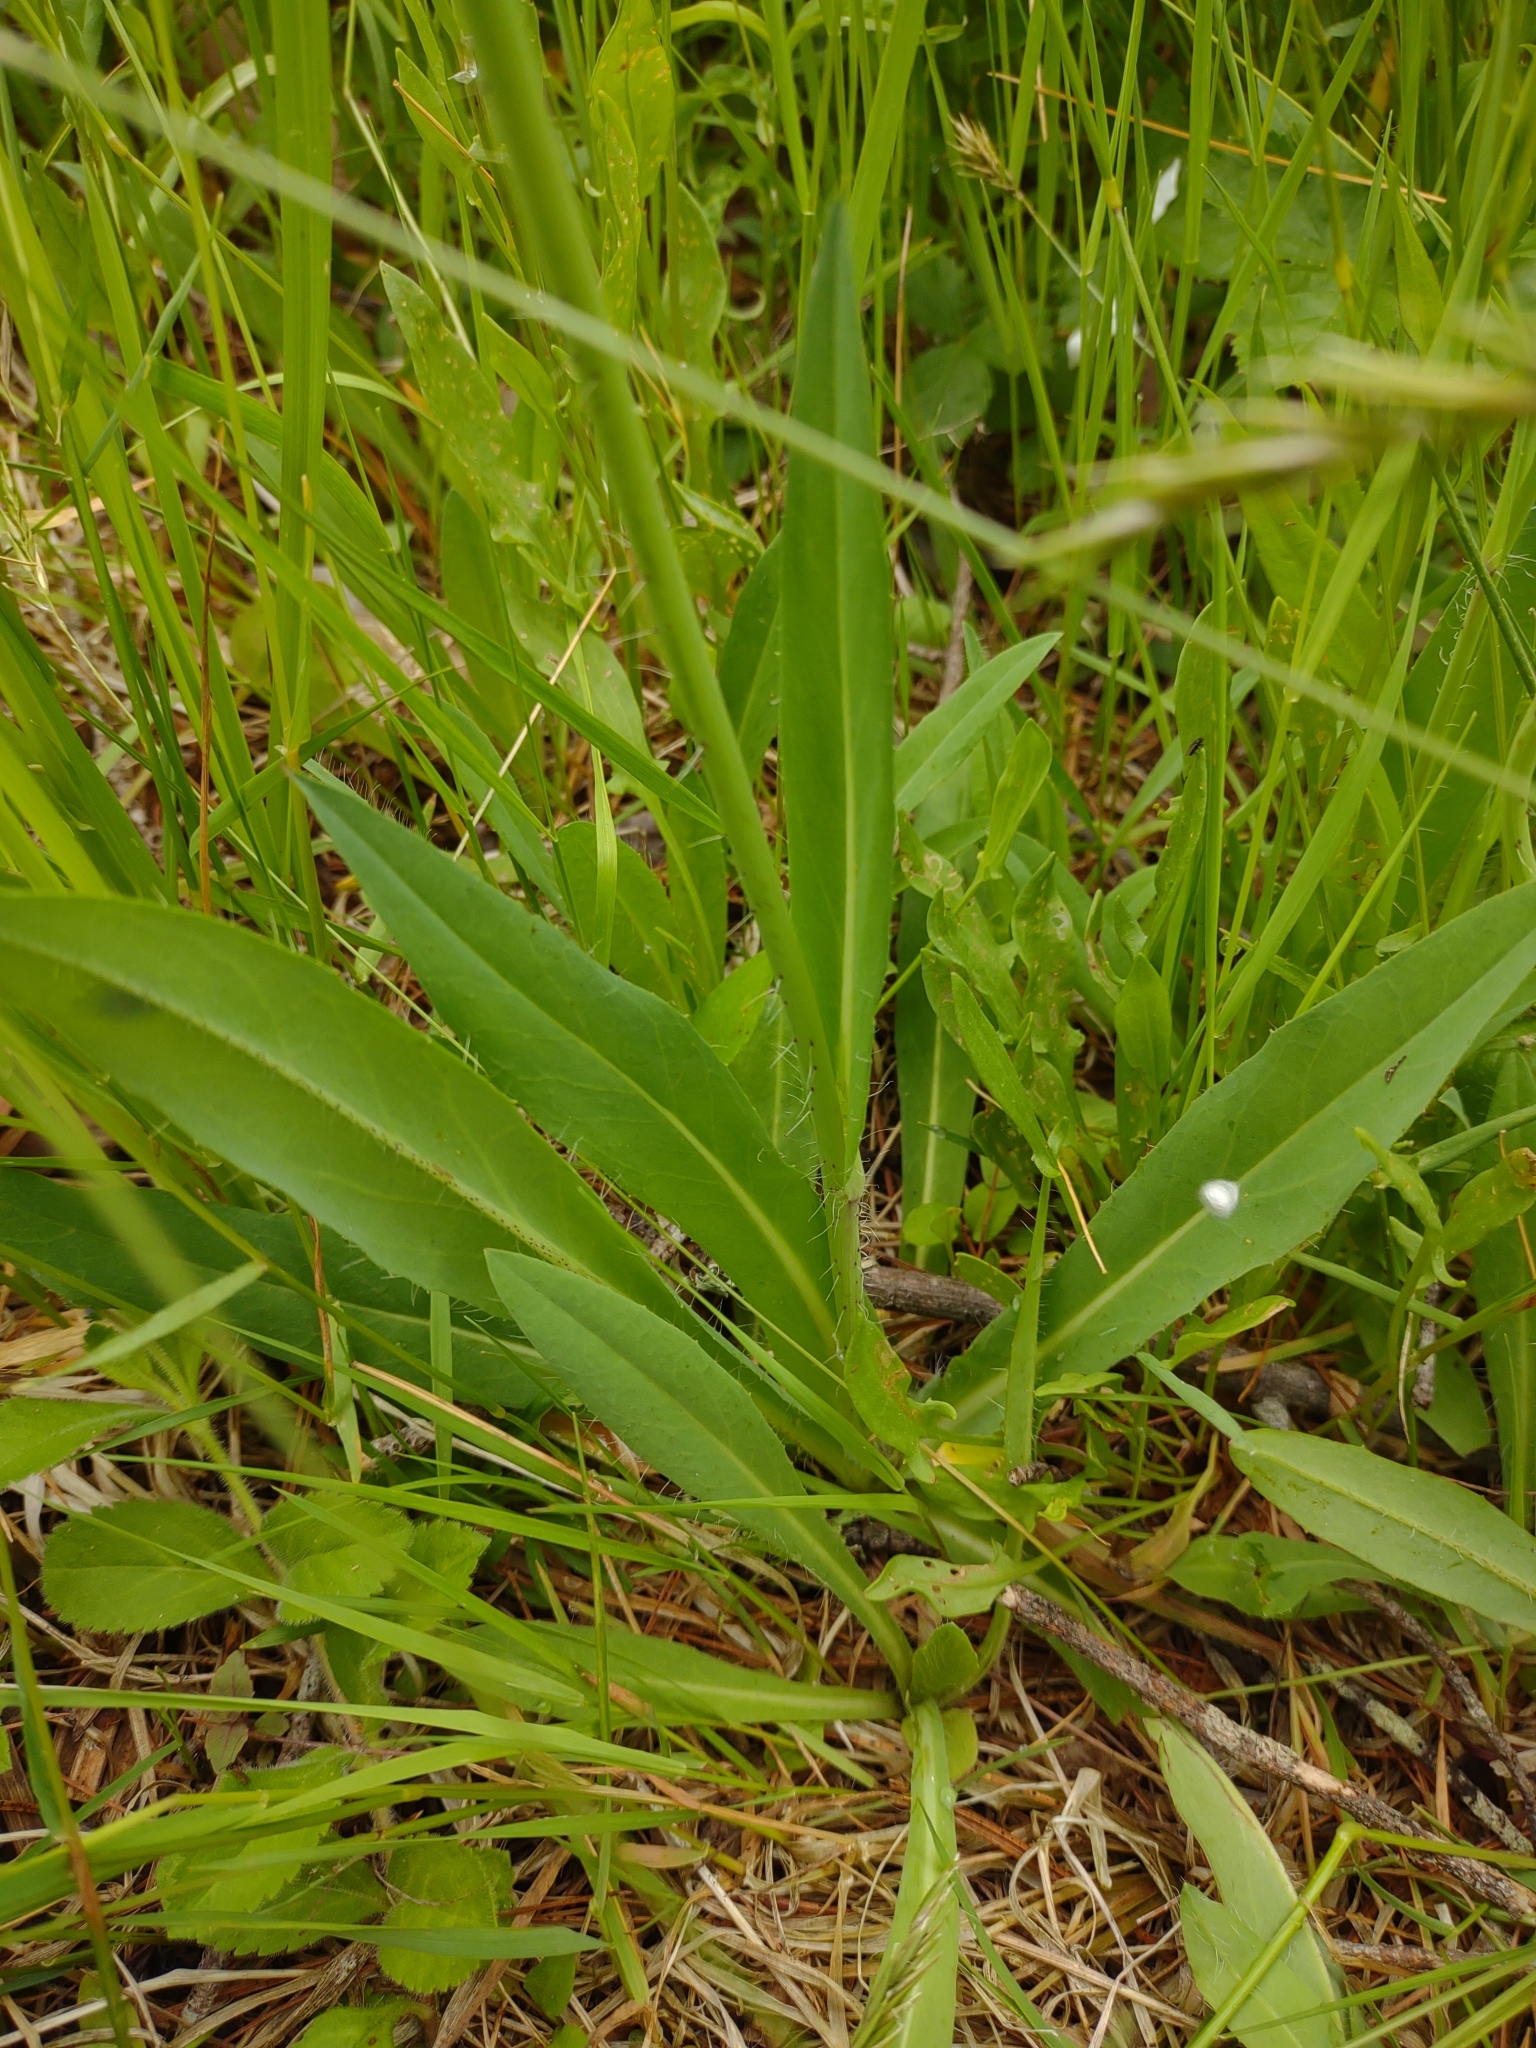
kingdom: Plantae
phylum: Tracheophyta
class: Magnoliopsida
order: Asterales
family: Asteraceae
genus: Pilosella
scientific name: Pilosella caespitosa
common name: Yellow fox-and-cubs
